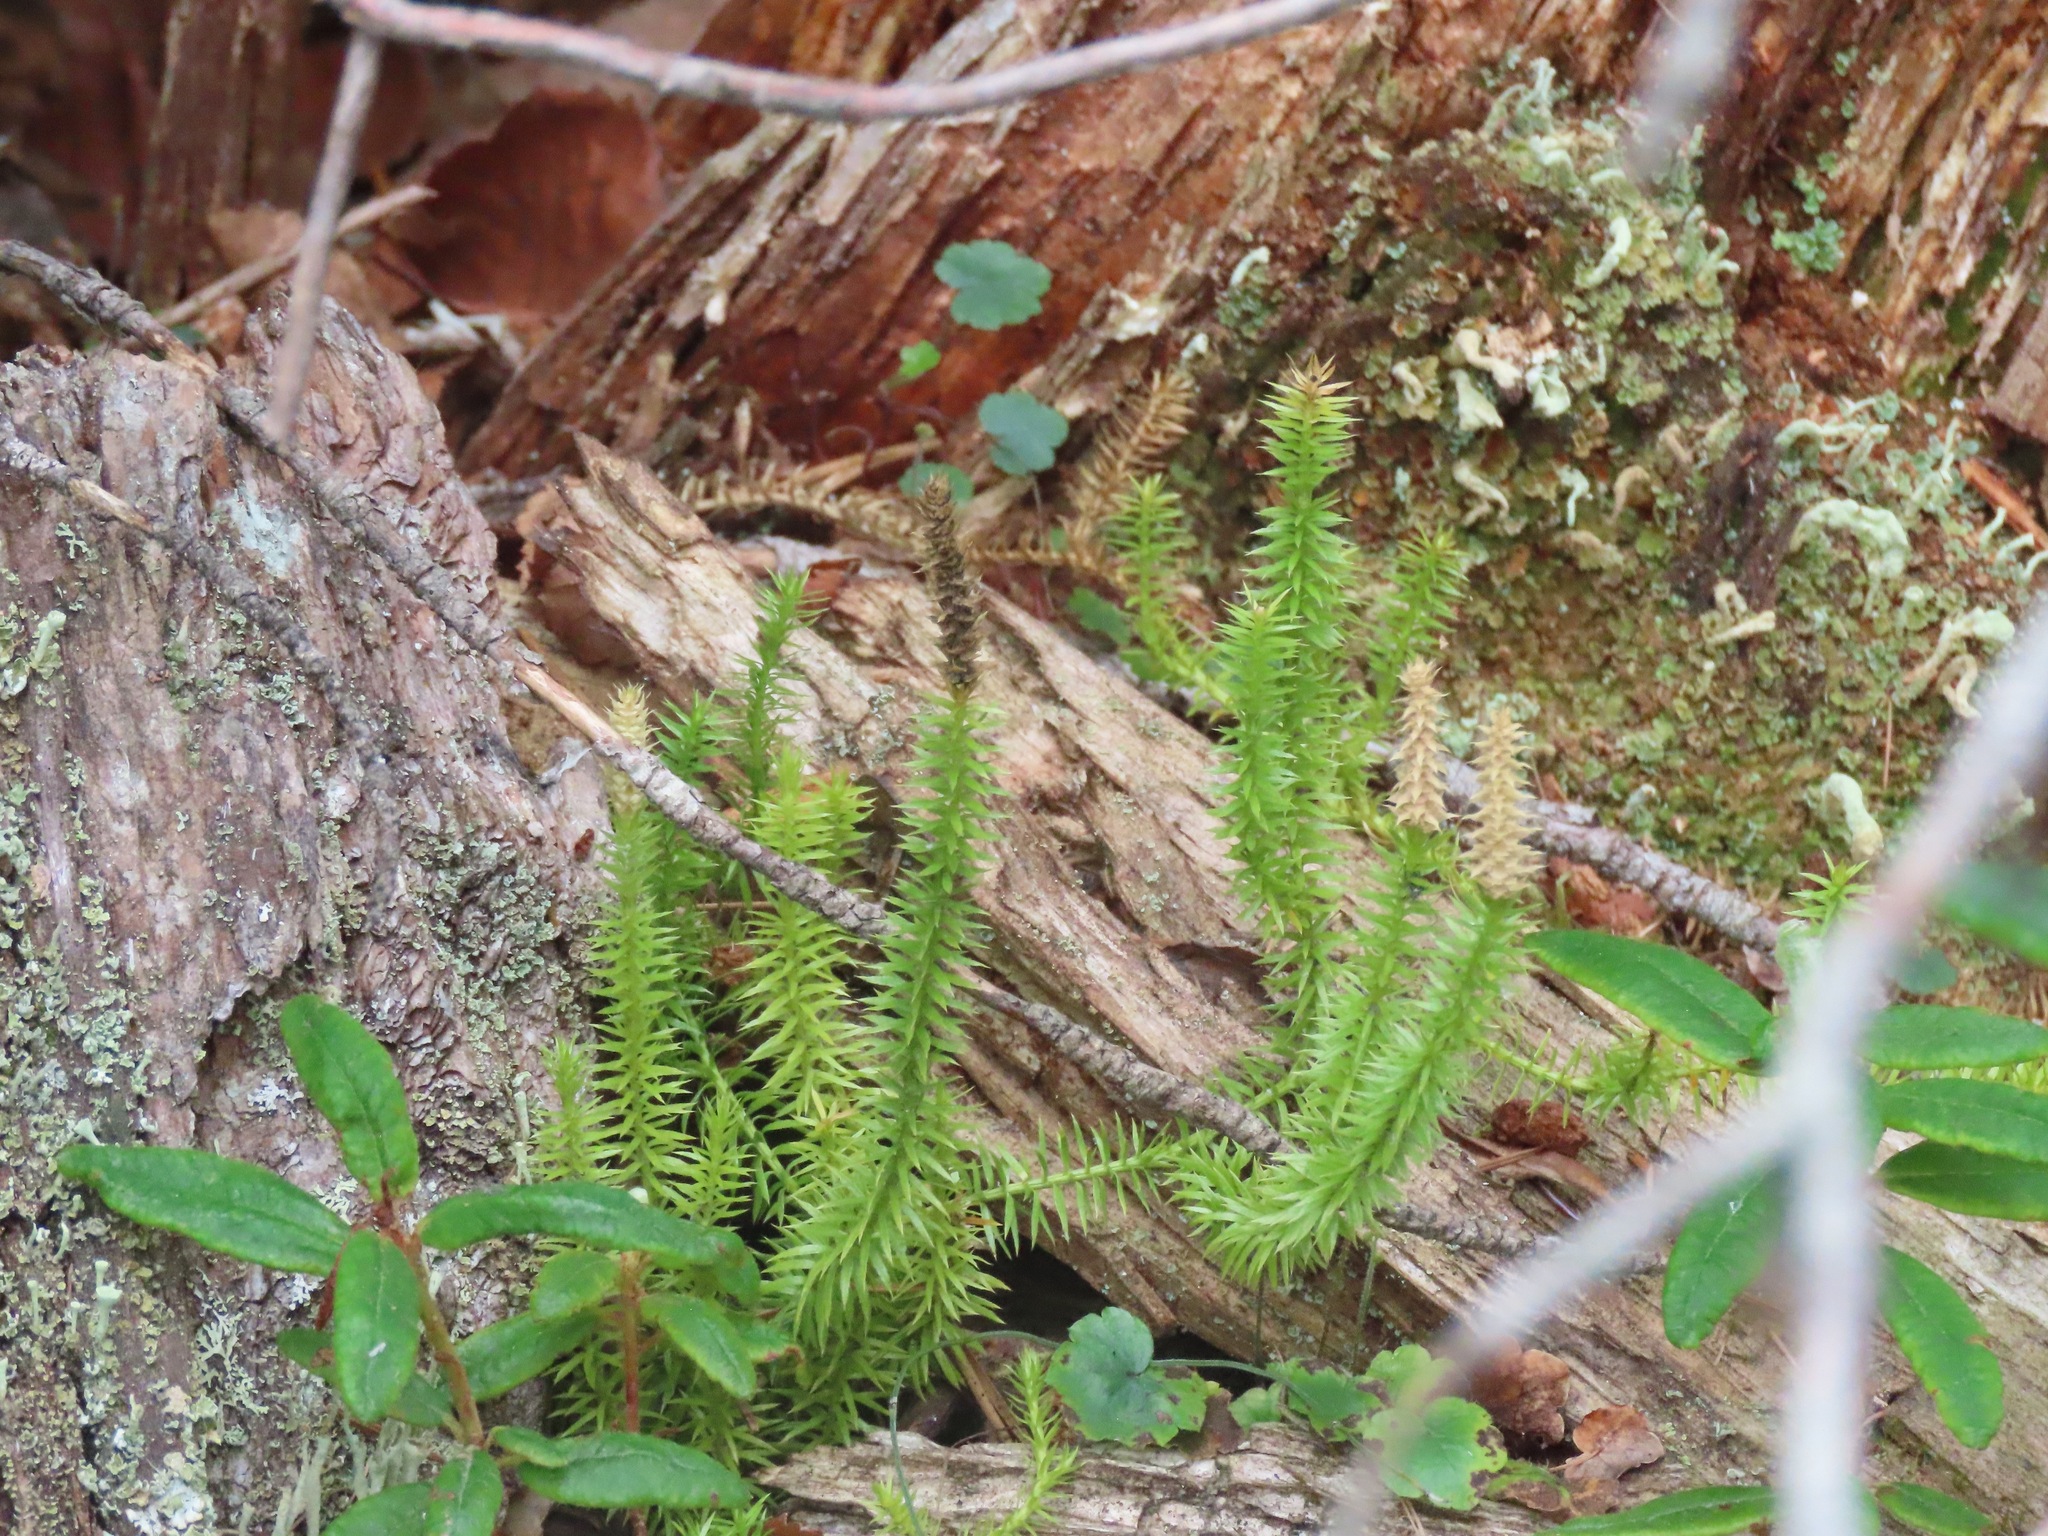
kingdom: Plantae
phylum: Tracheophyta
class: Lycopodiopsida
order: Lycopodiales
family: Lycopodiaceae
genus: Spinulum
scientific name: Spinulum annotinum
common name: Interrupted club-moss
